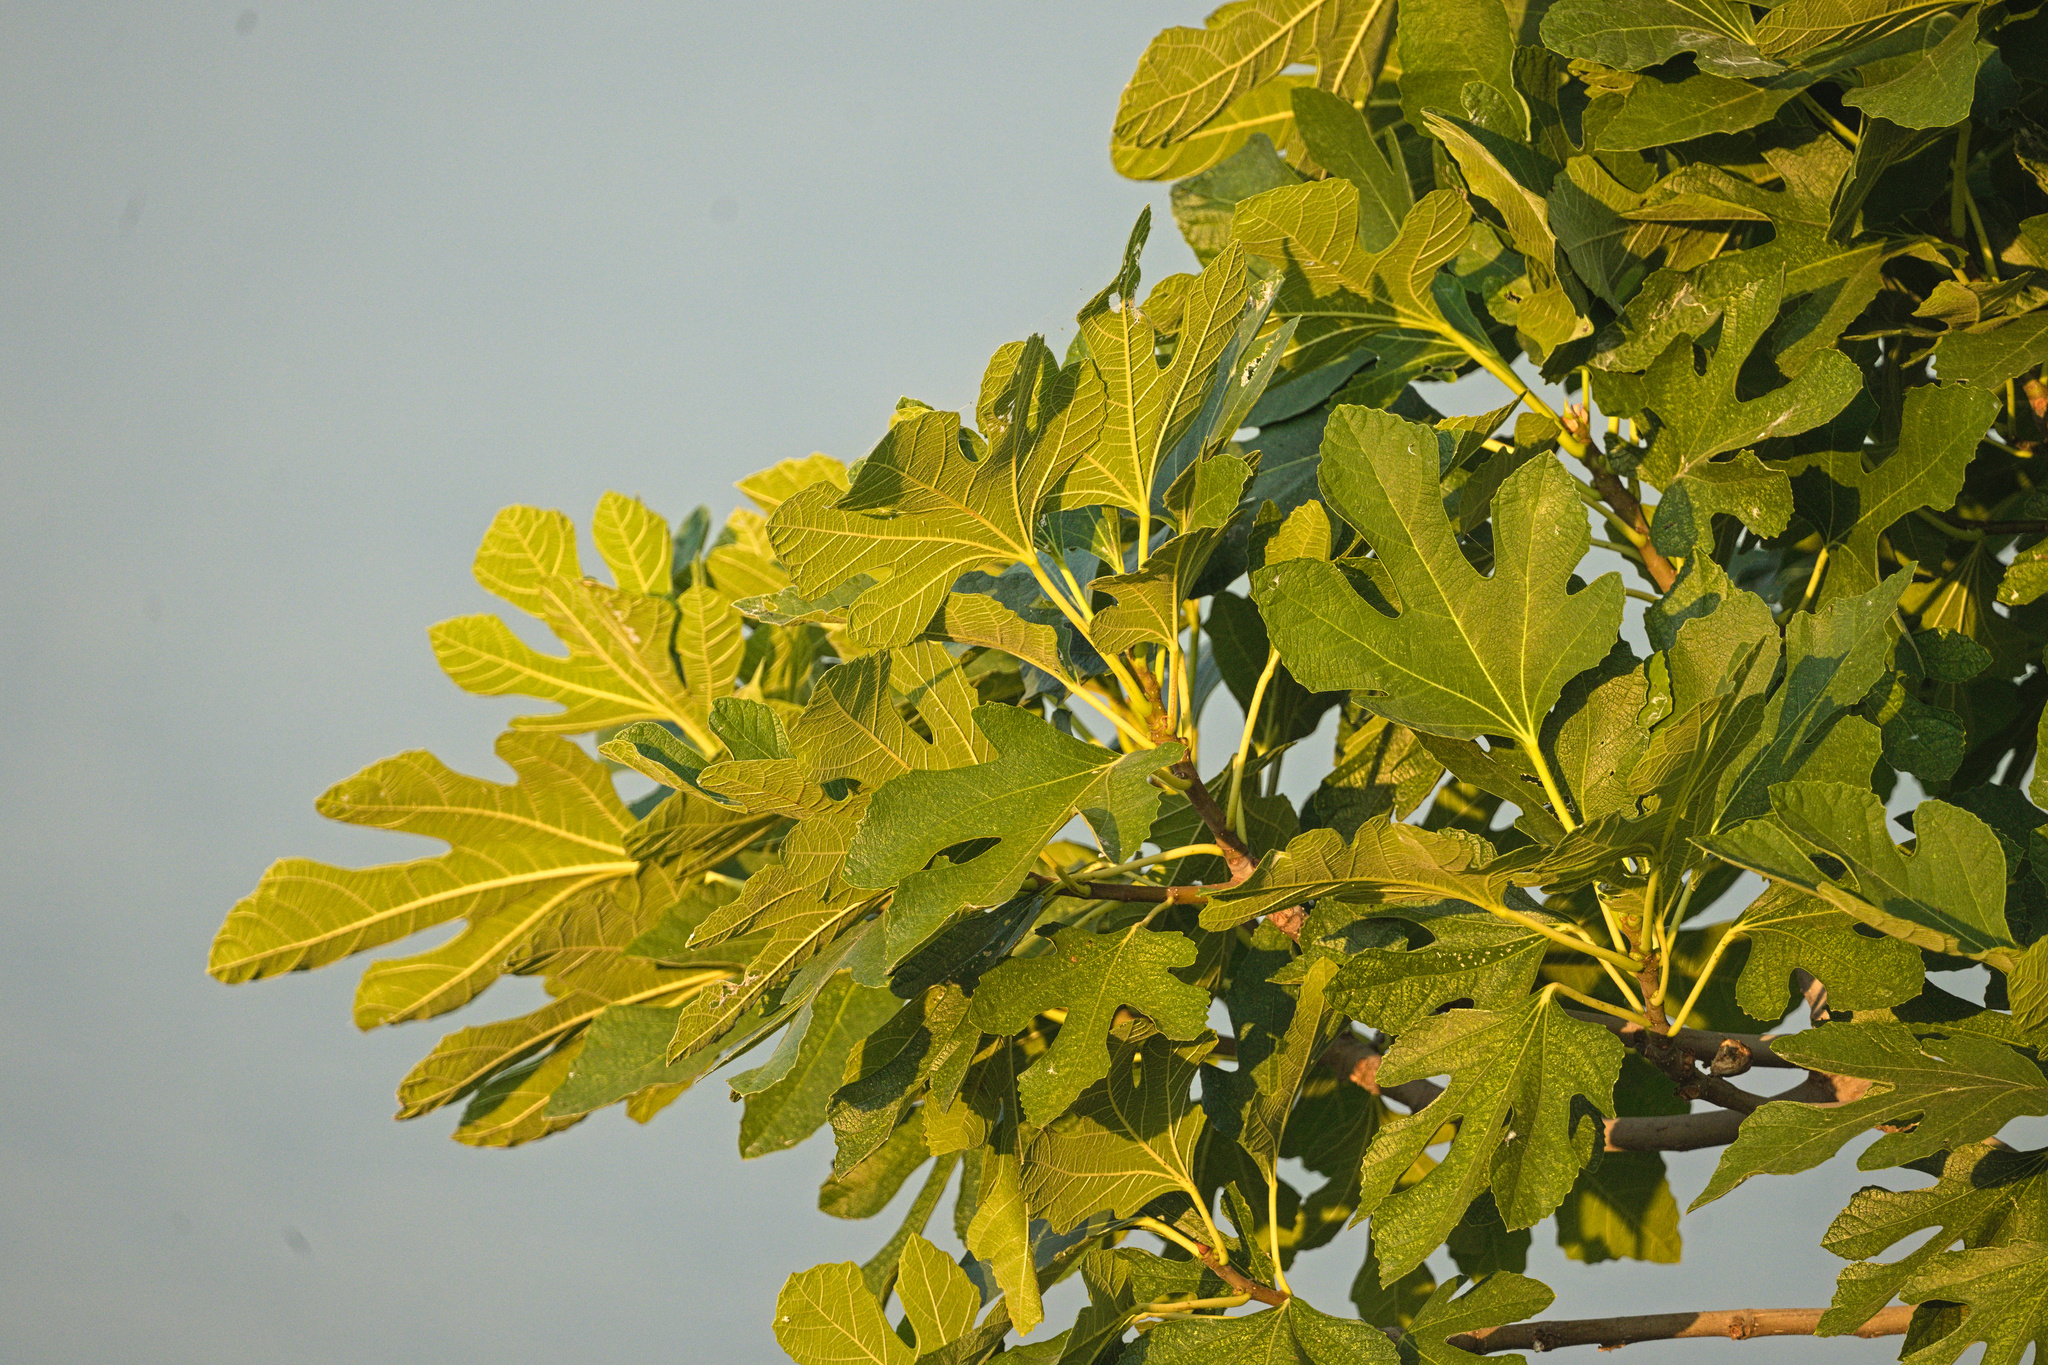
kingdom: Plantae
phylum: Tracheophyta
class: Magnoliopsida
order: Rosales
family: Moraceae
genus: Ficus
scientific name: Ficus carica
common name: Fig
